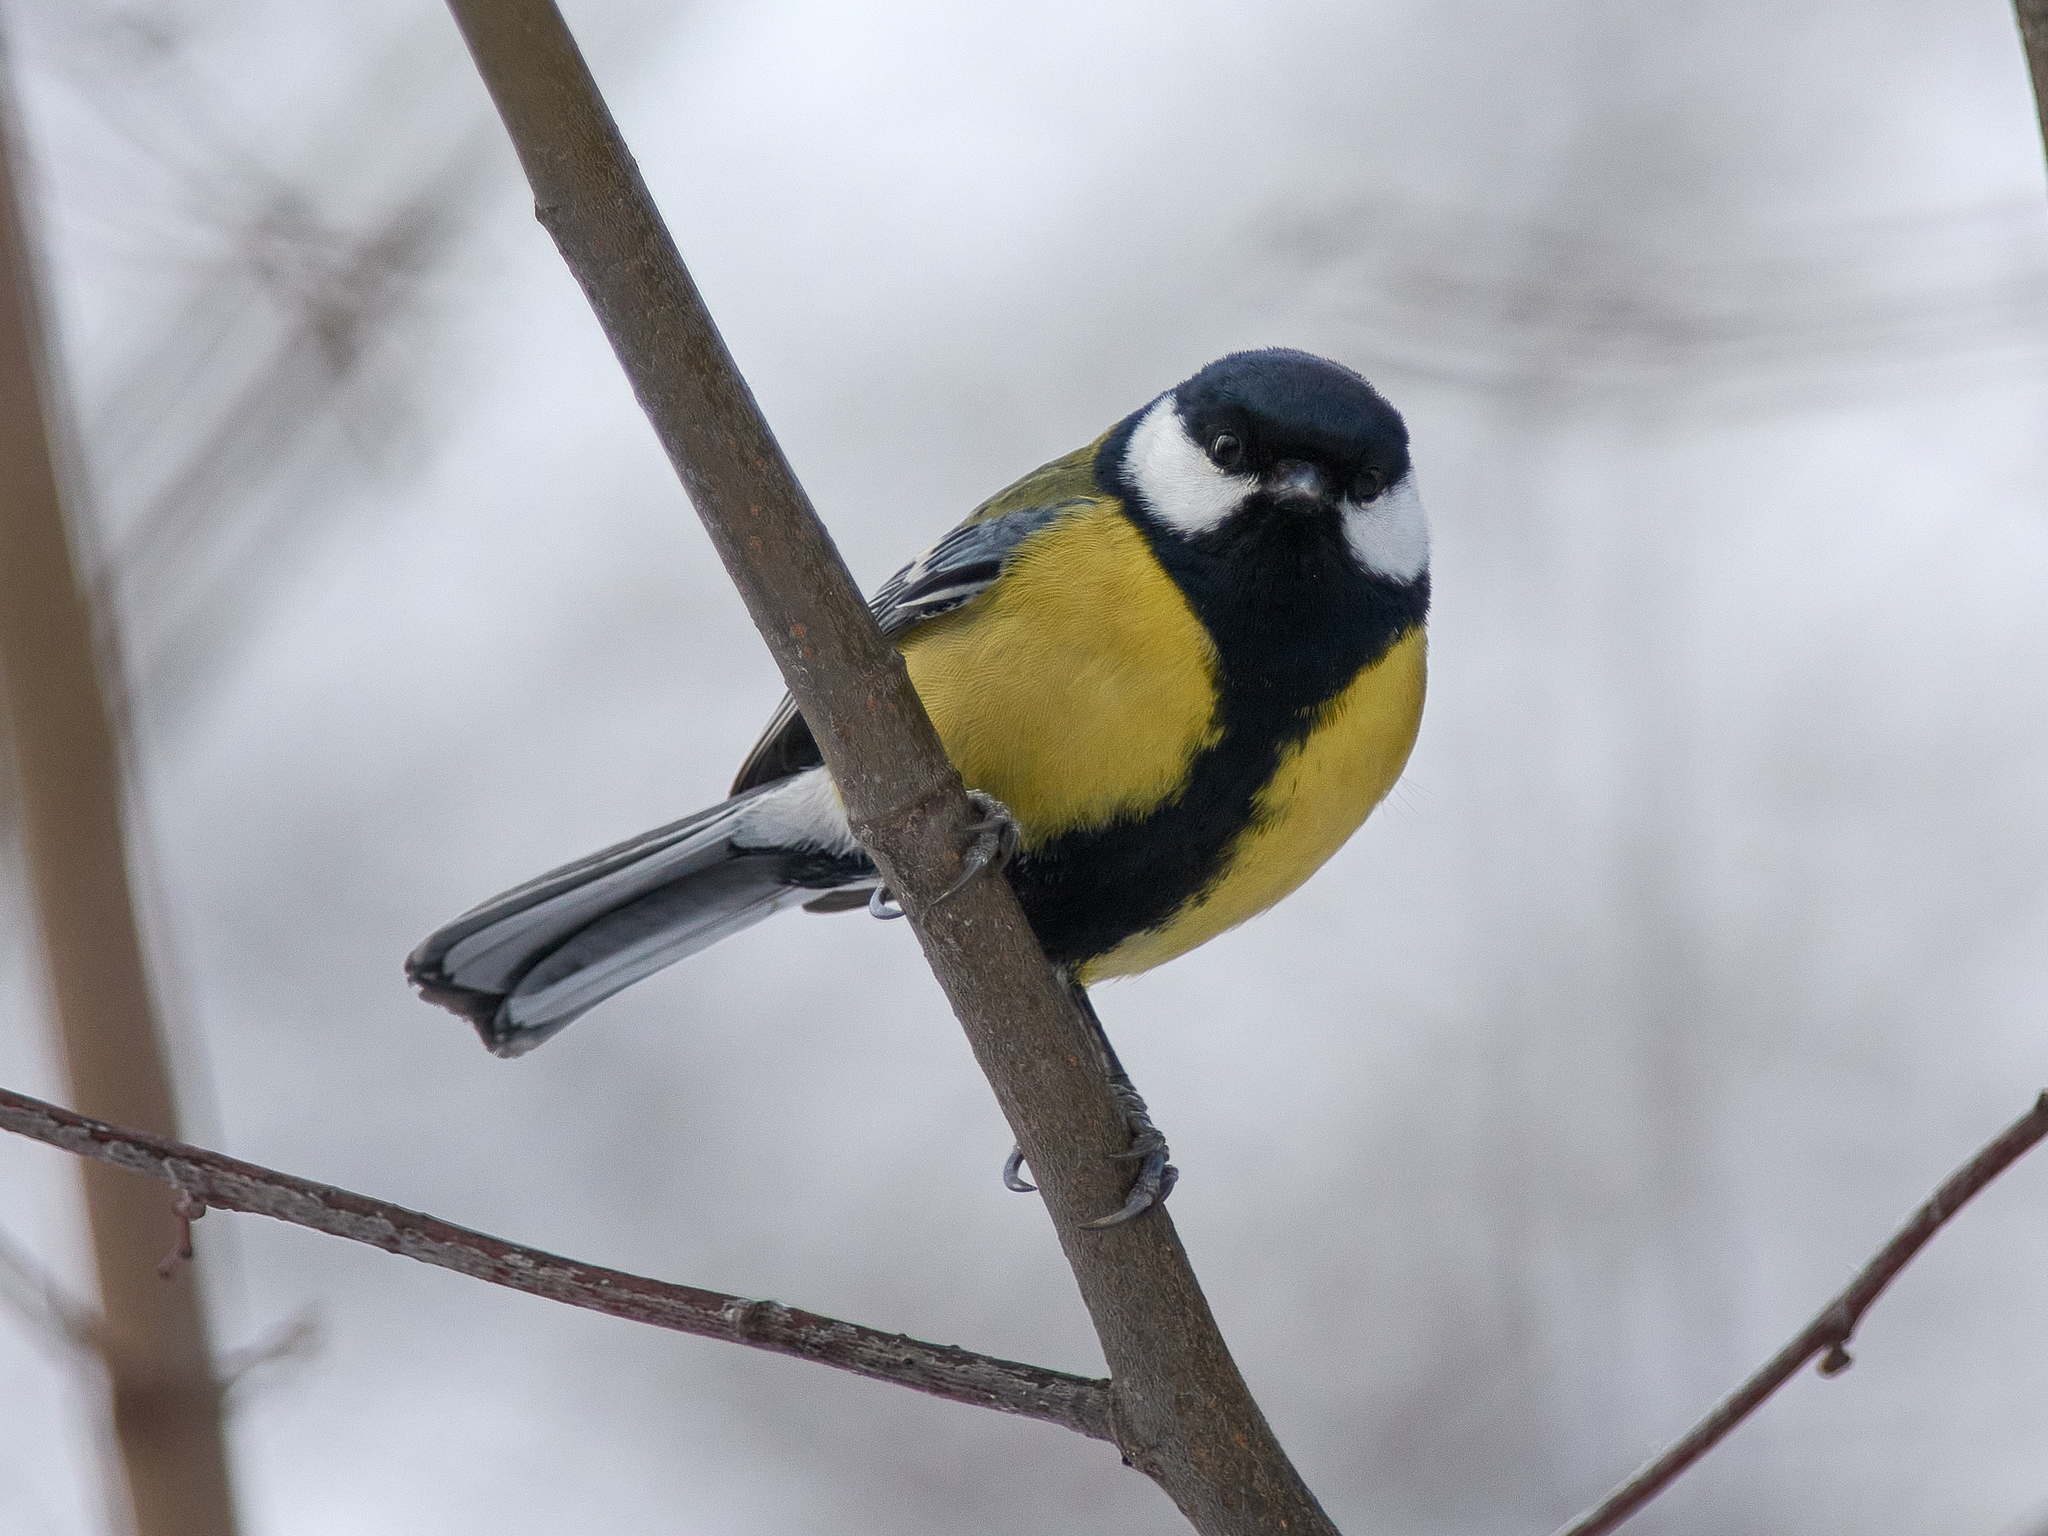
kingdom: Animalia
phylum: Chordata
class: Aves
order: Passeriformes
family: Paridae
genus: Parus
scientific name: Parus major
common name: Great tit
